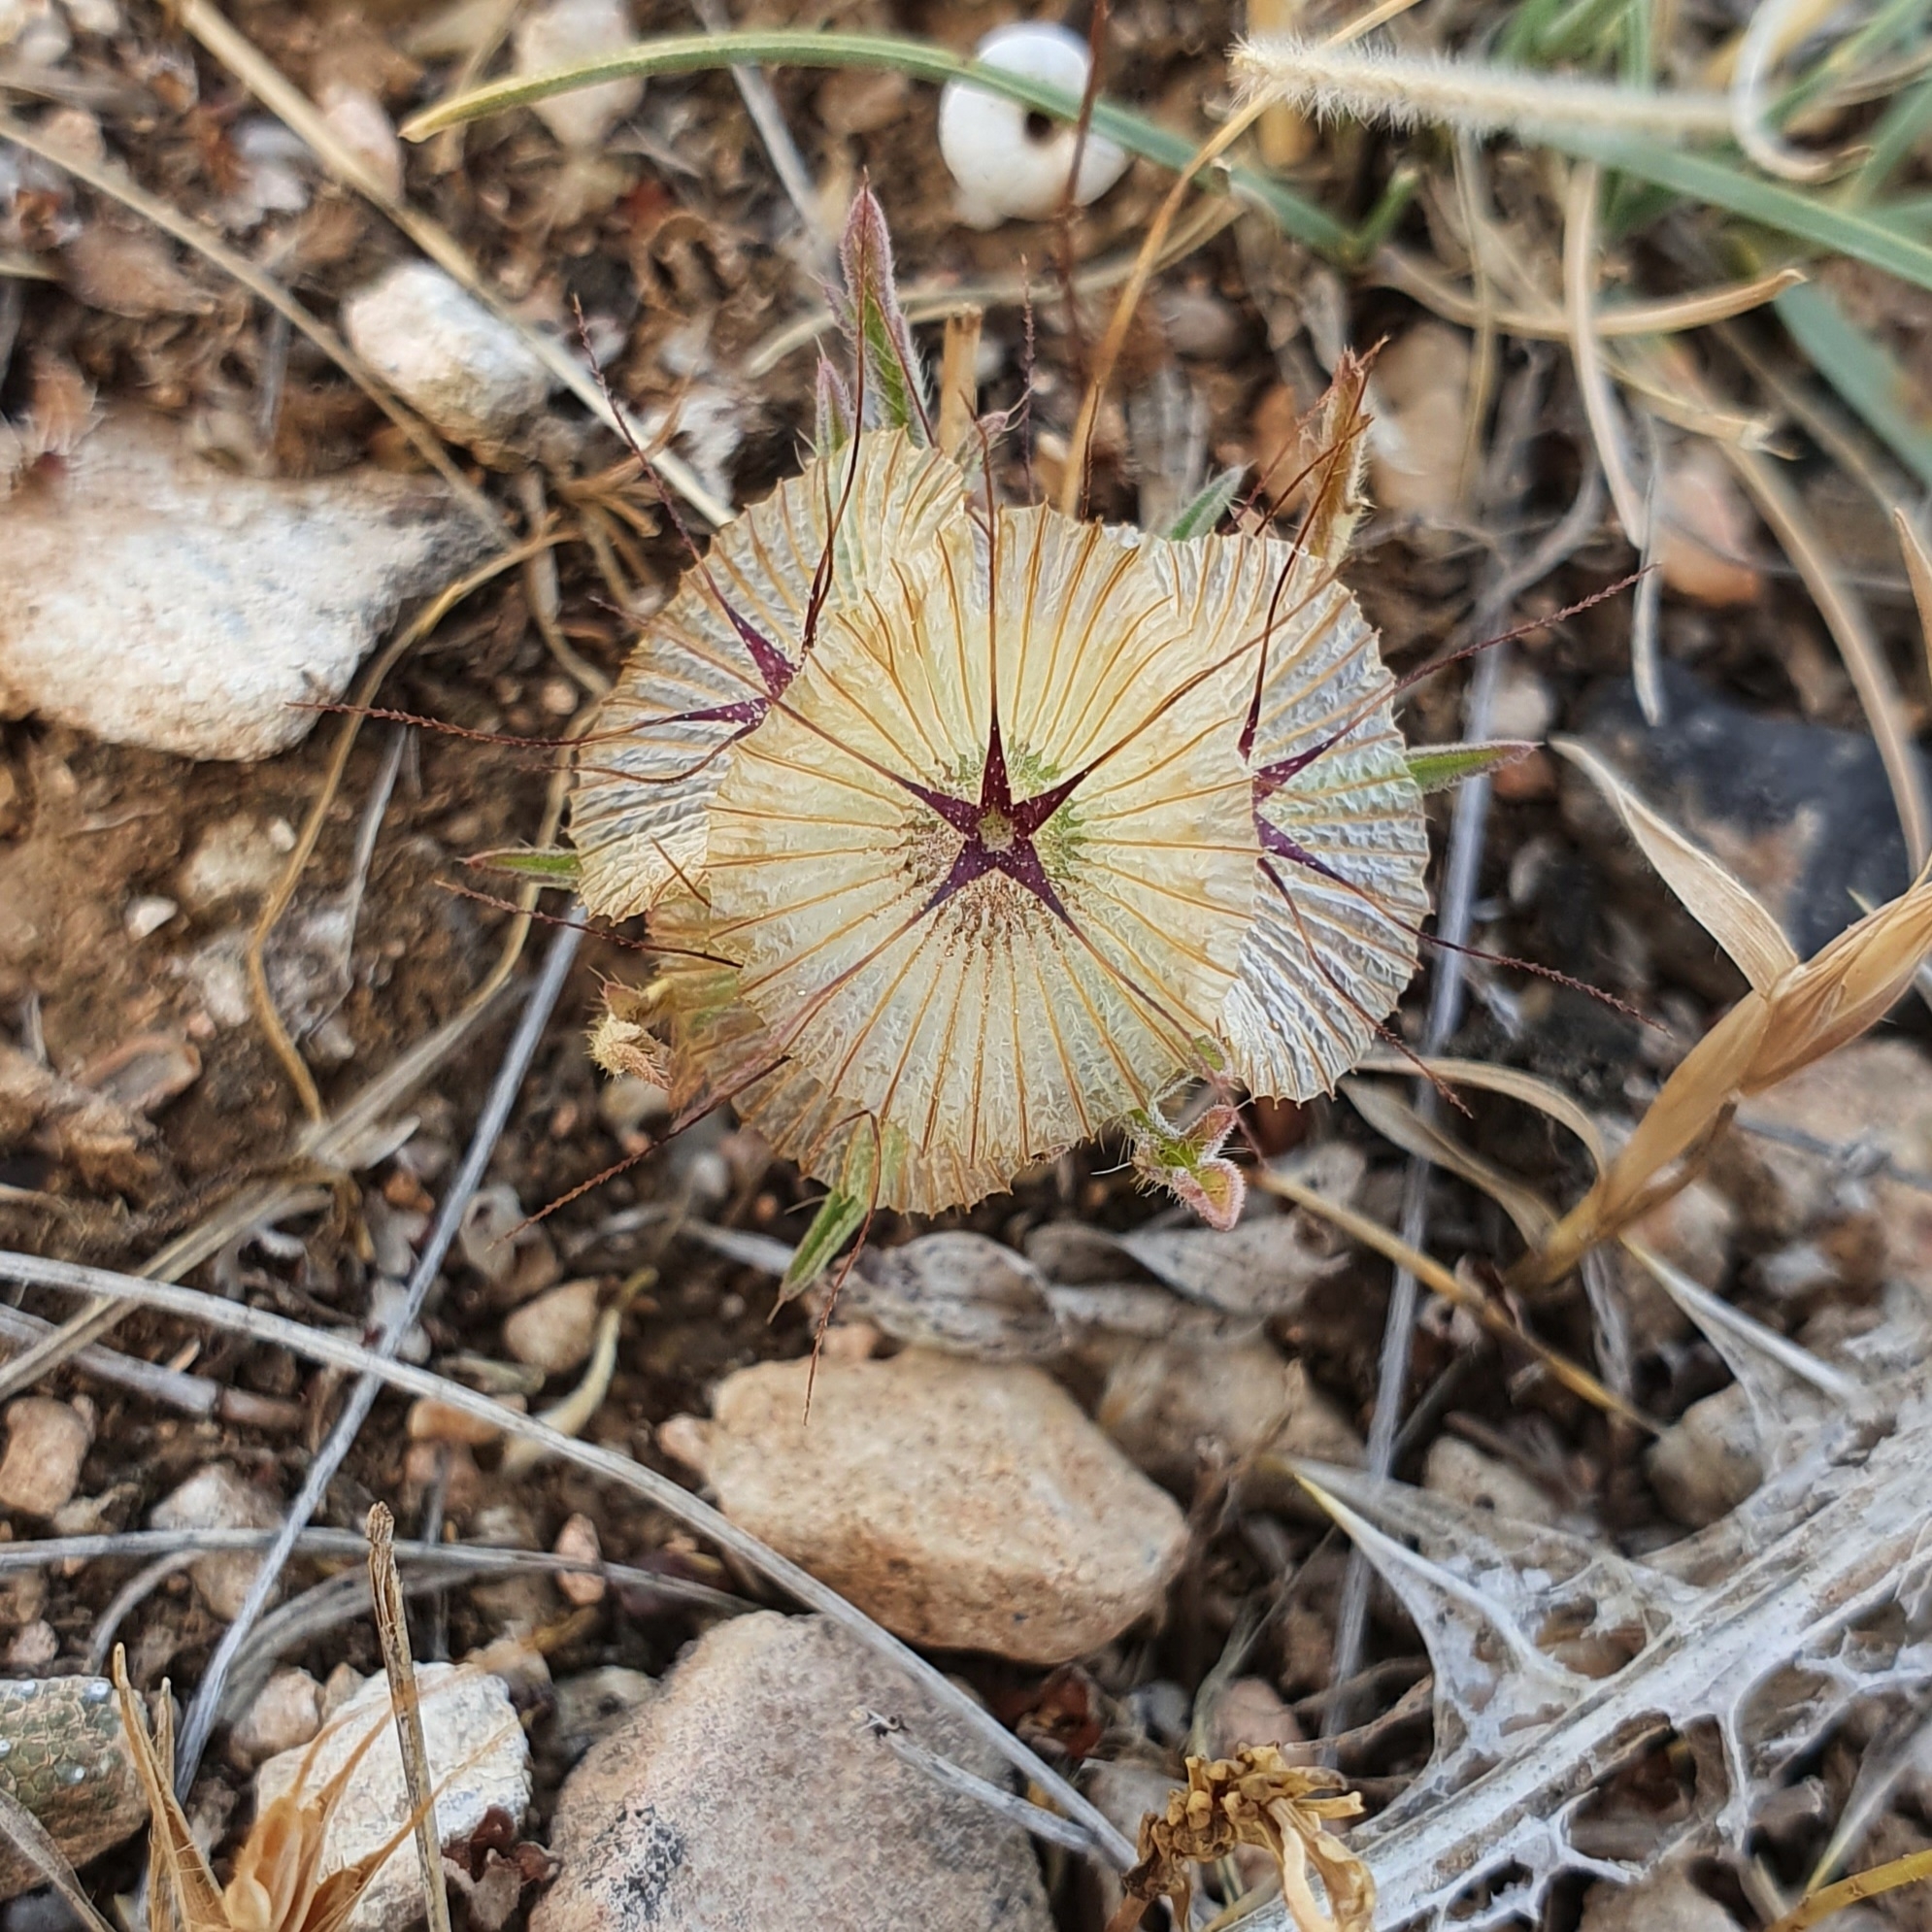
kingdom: Plantae
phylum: Tracheophyta
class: Magnoliopsida
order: Dipsacales
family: Caprifoliaceae
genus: Lomelosia
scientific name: Lomelosia stellata
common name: Teasel
